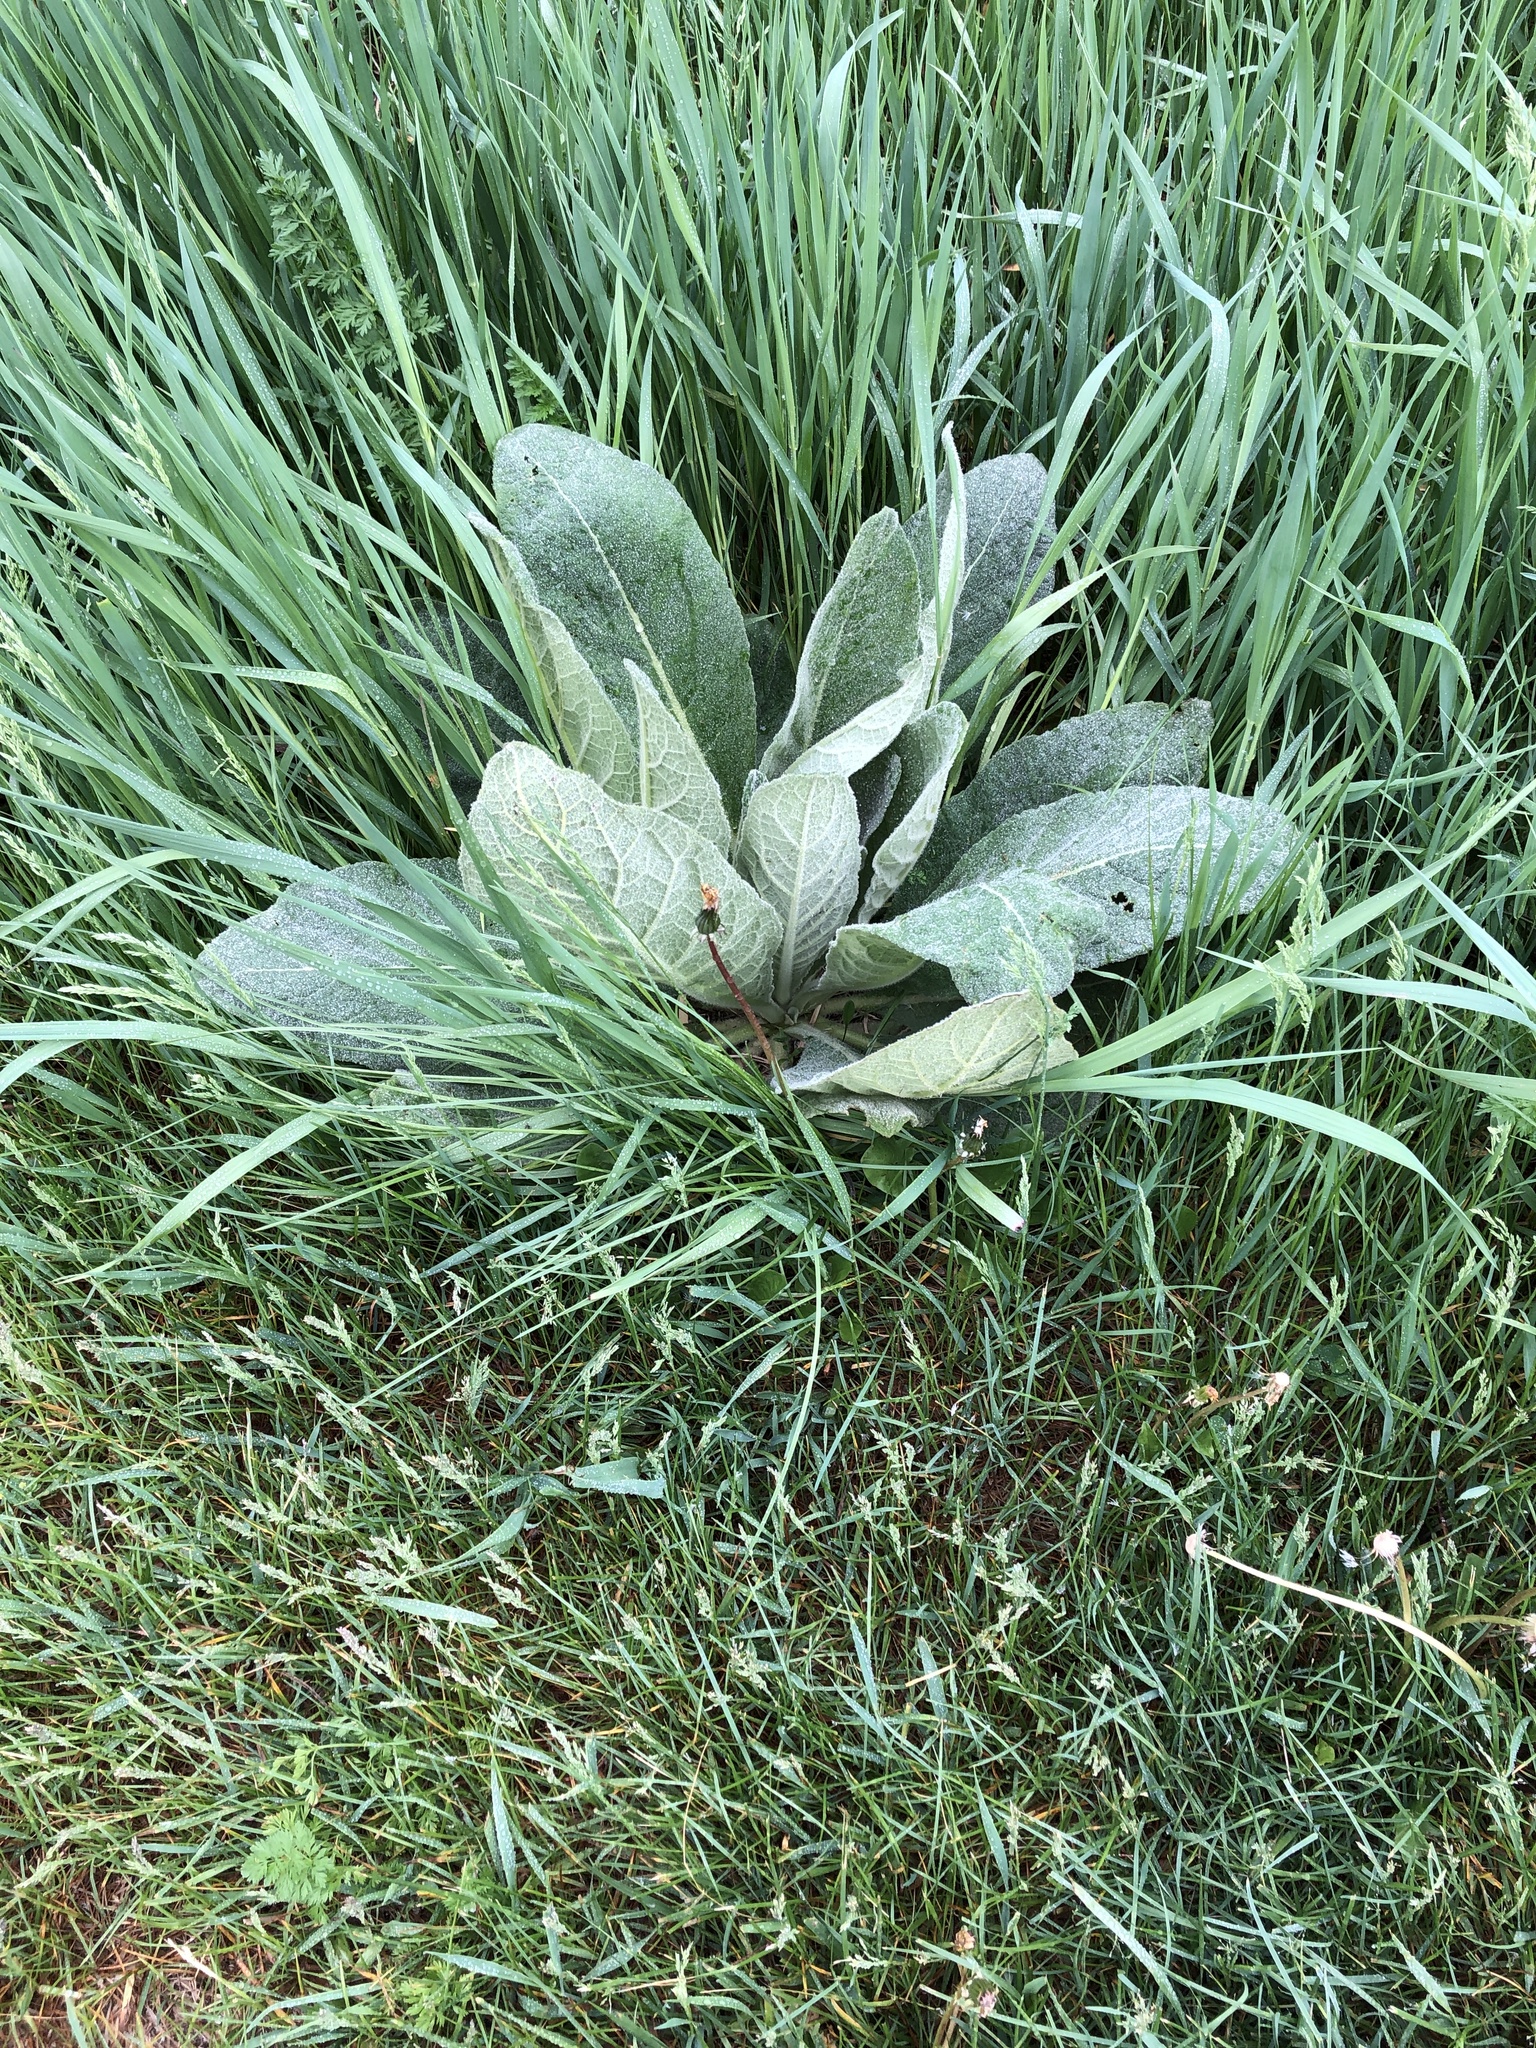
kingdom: Plantae
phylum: Tracheophyta
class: Magnoliopsida
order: Lamiales
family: Scrophulariaceae
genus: Verbascum
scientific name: Verbascum thapsus
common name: Common mullein
